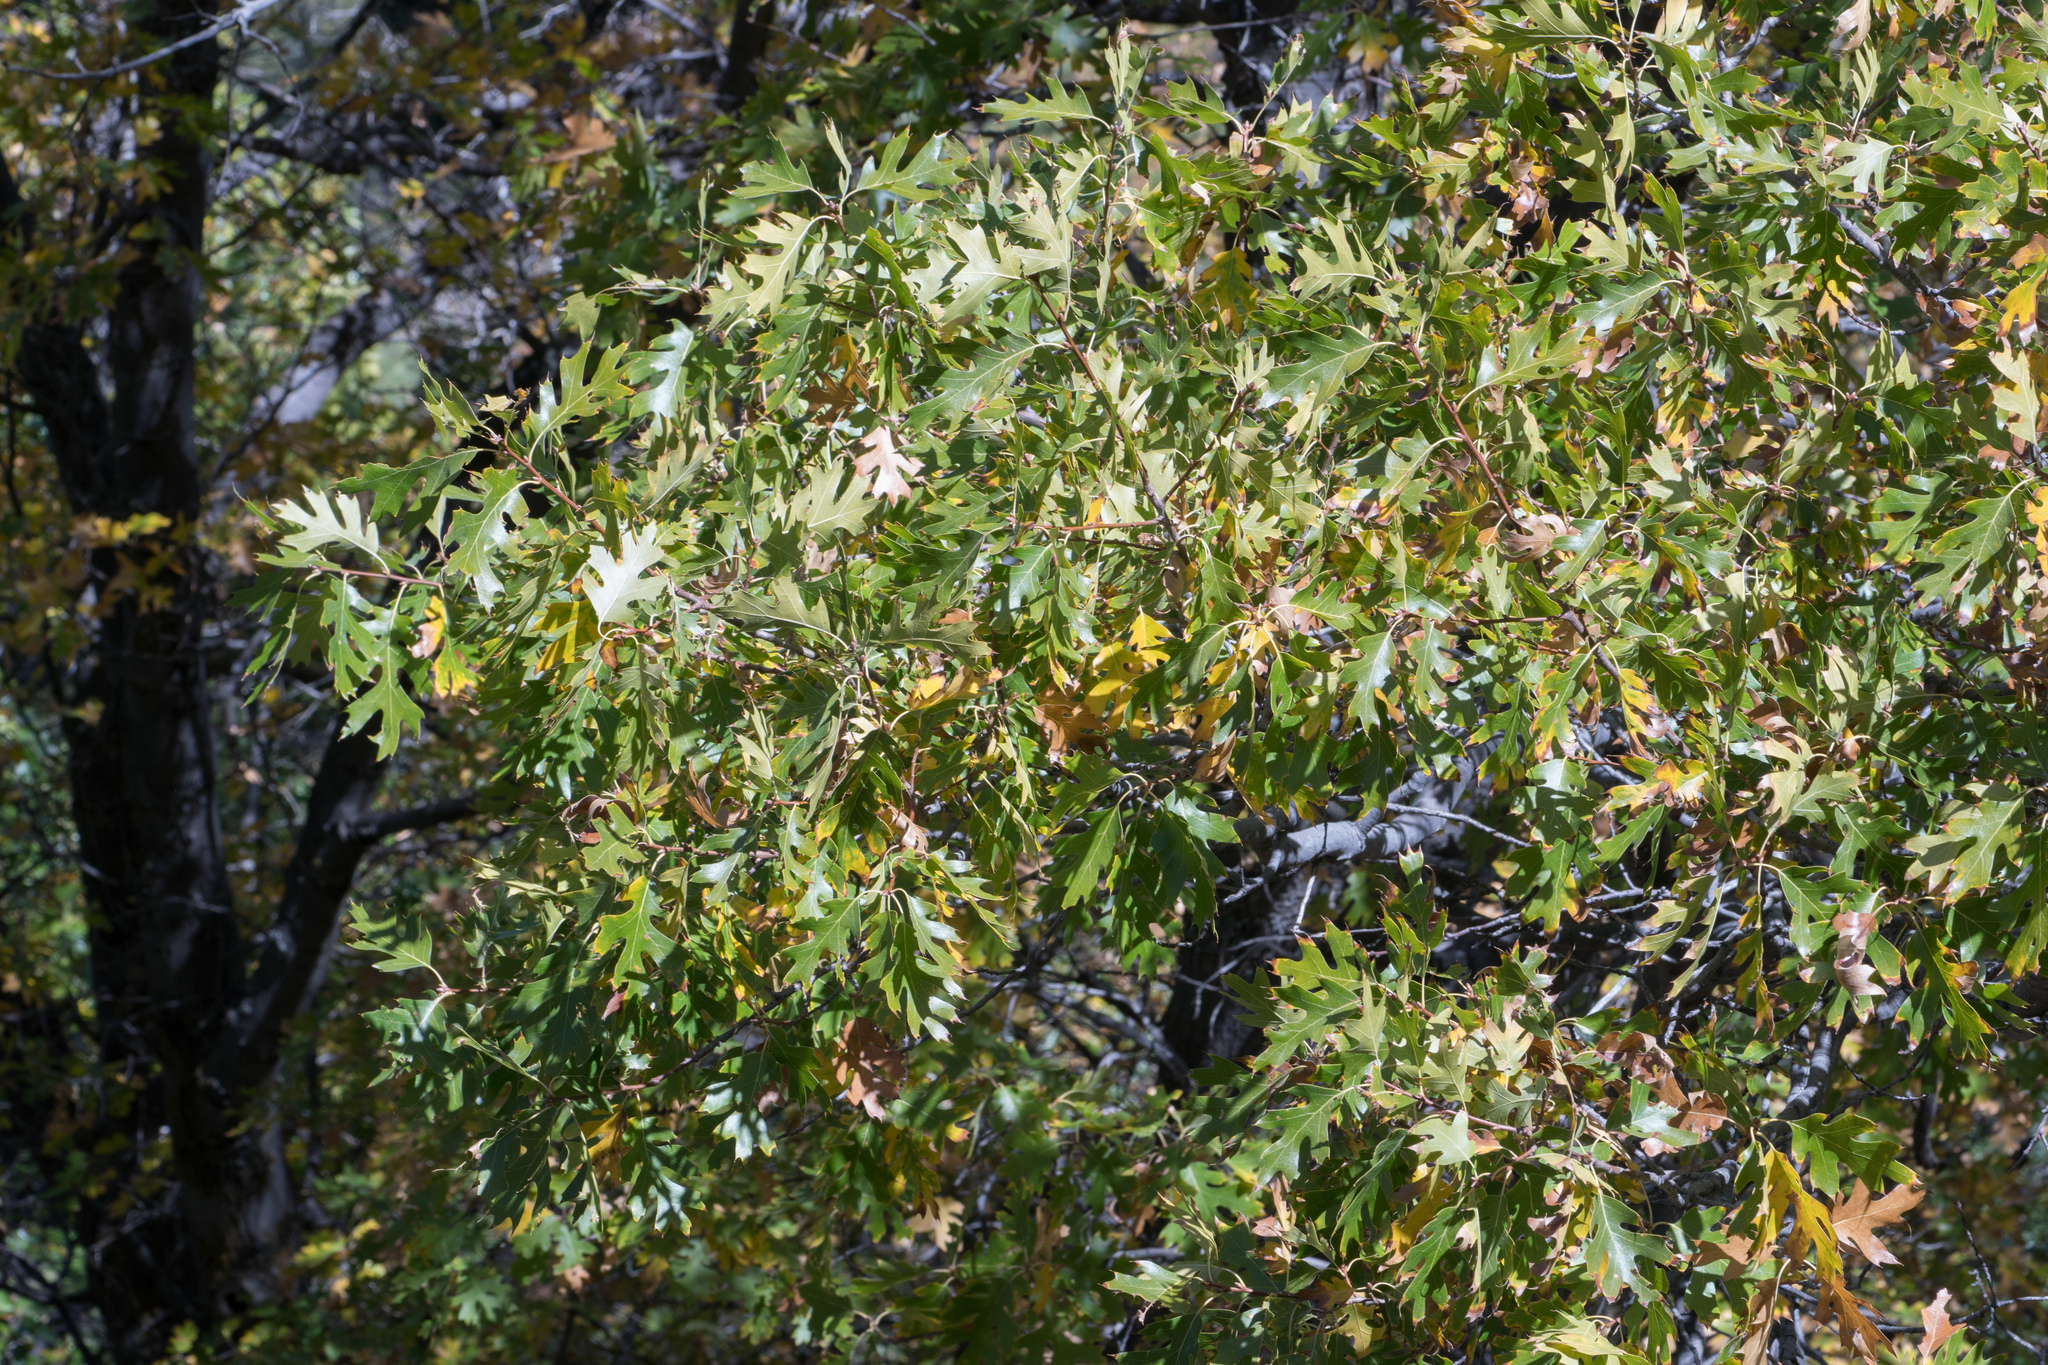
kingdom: Plantae
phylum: Tracheophyta
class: Magnoliopsida
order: Fagales
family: Fagaceae
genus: Quercus
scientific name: Quercus kelloggii
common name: California black oak
